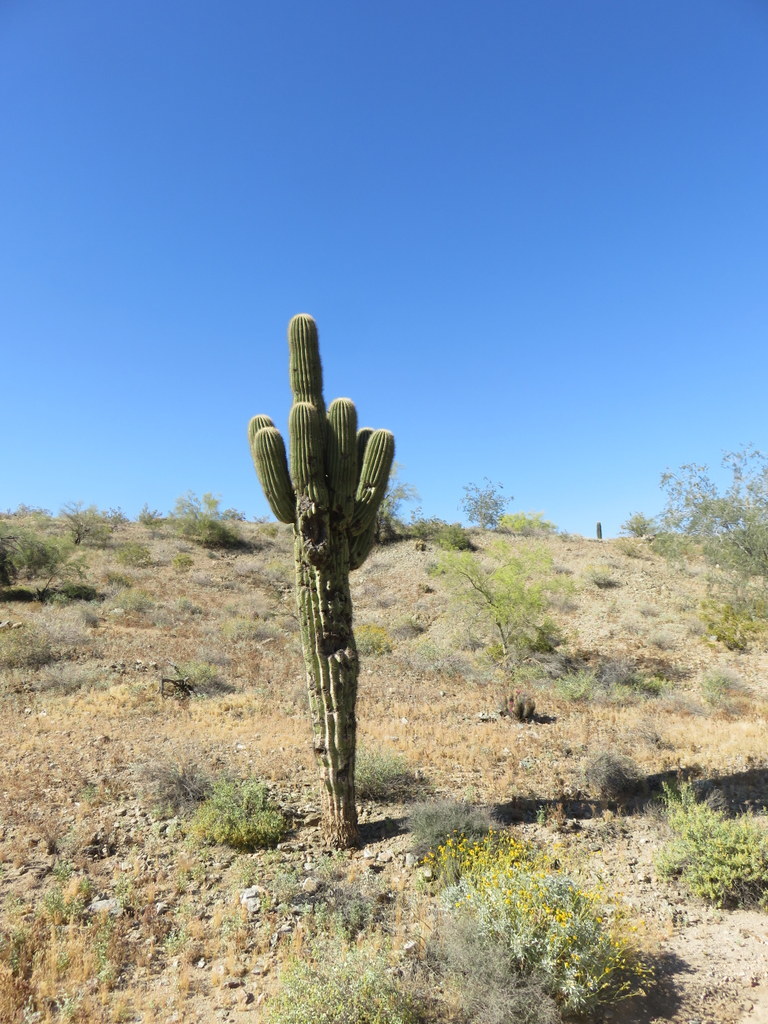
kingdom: Plantae
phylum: Tracheophyta
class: Magnoliopsida
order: Caryophyllales
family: Cactaceae
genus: Carnegiea
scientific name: Carnegiea gigantea
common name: Saguaro
